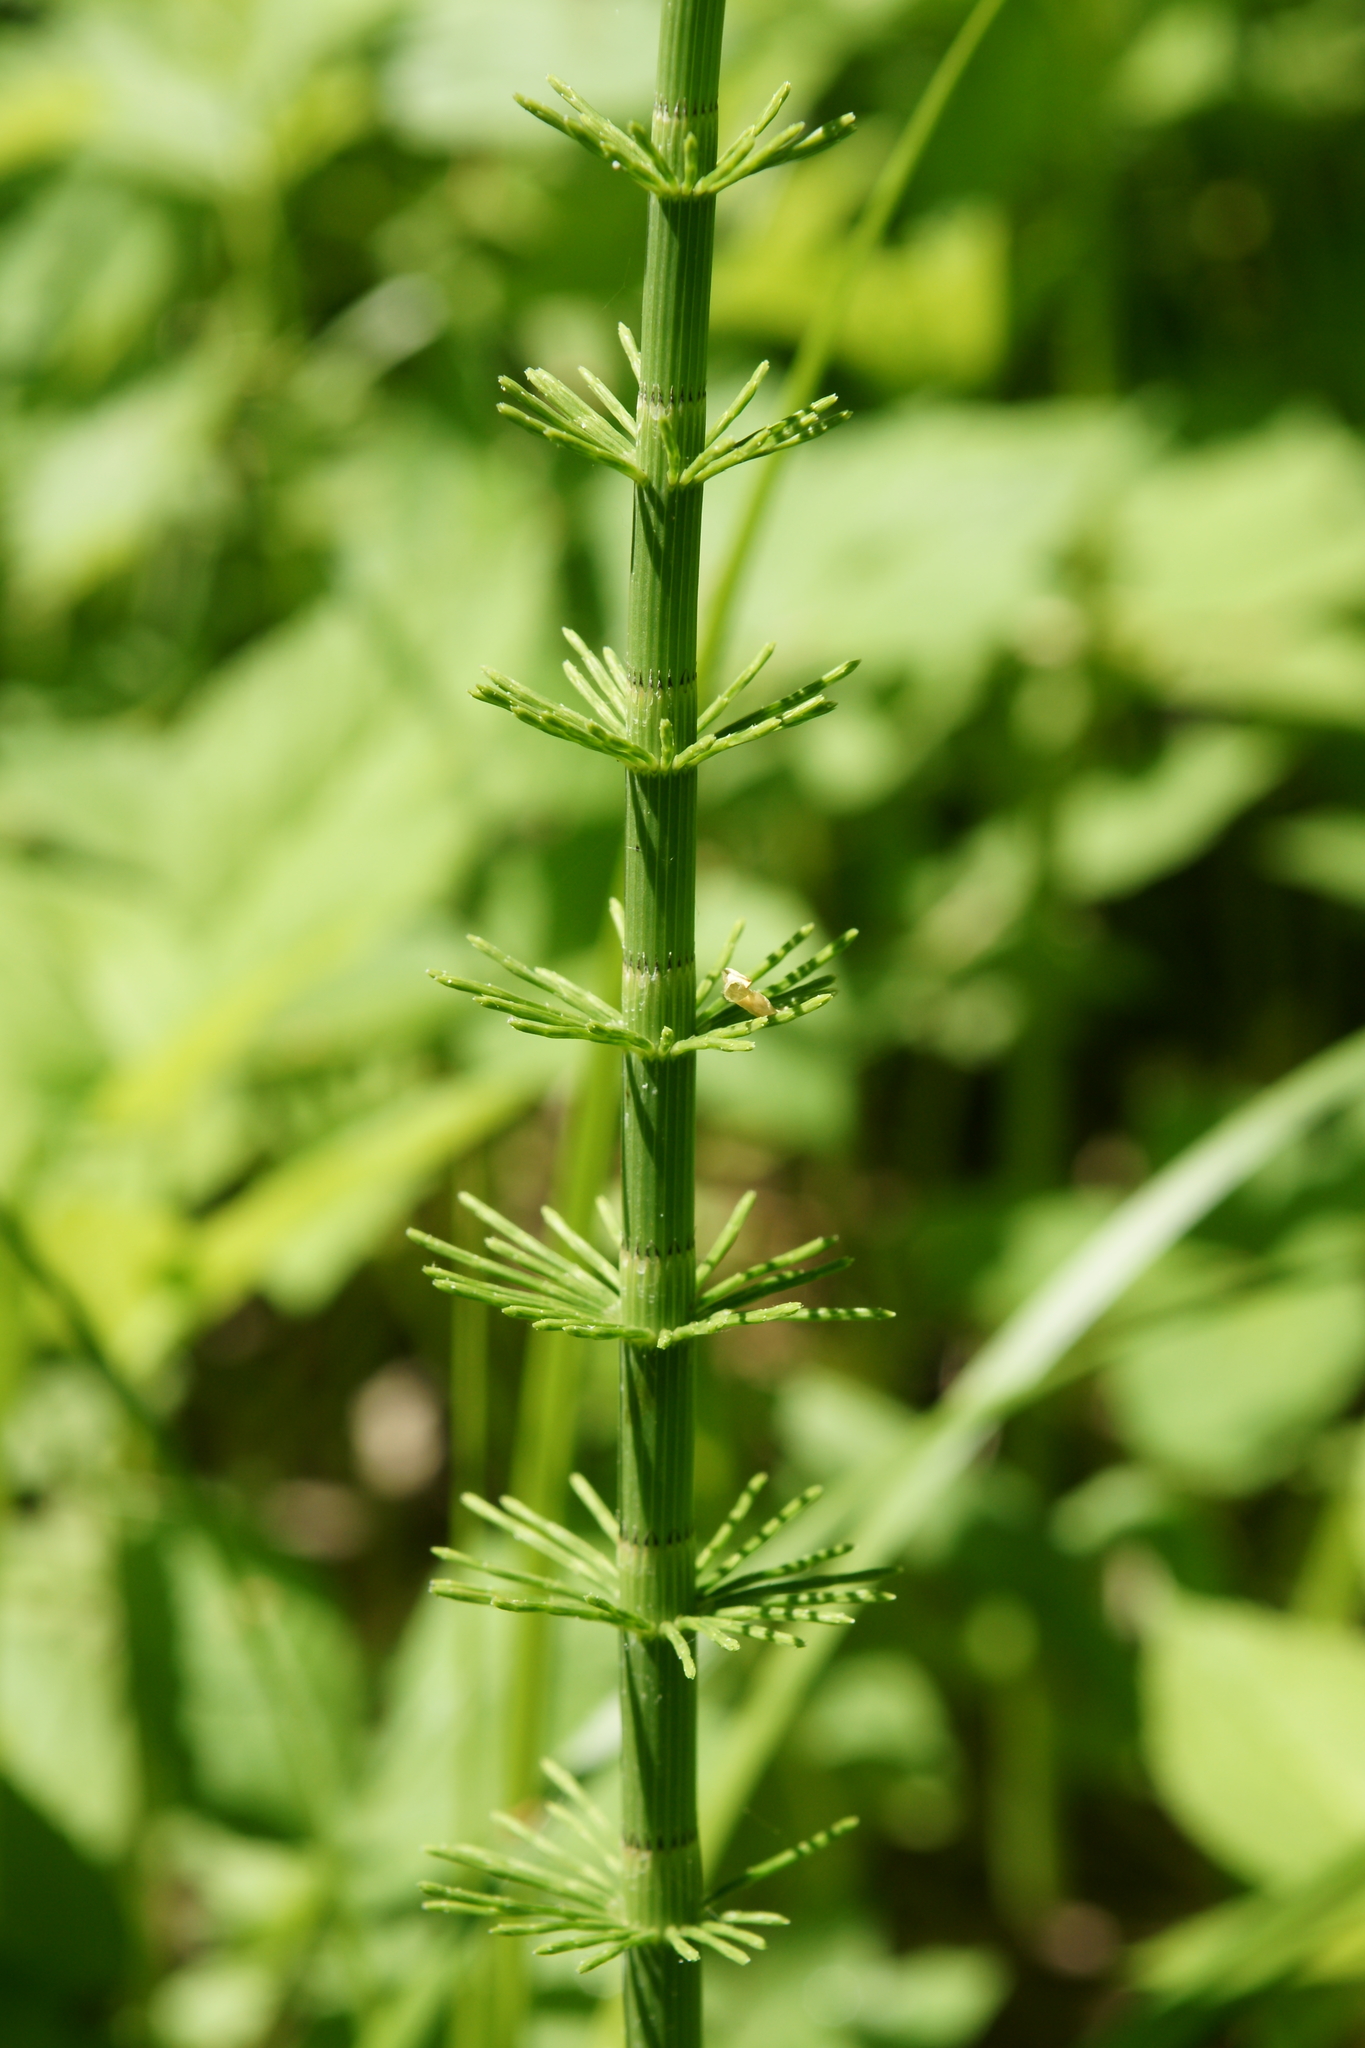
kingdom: Plantae
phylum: Tracheophyta
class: Polypodiopsida
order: Equisetales
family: Equisetaceae
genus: Equisetum
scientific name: Equisetum fluviatile
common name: Water horsetail
